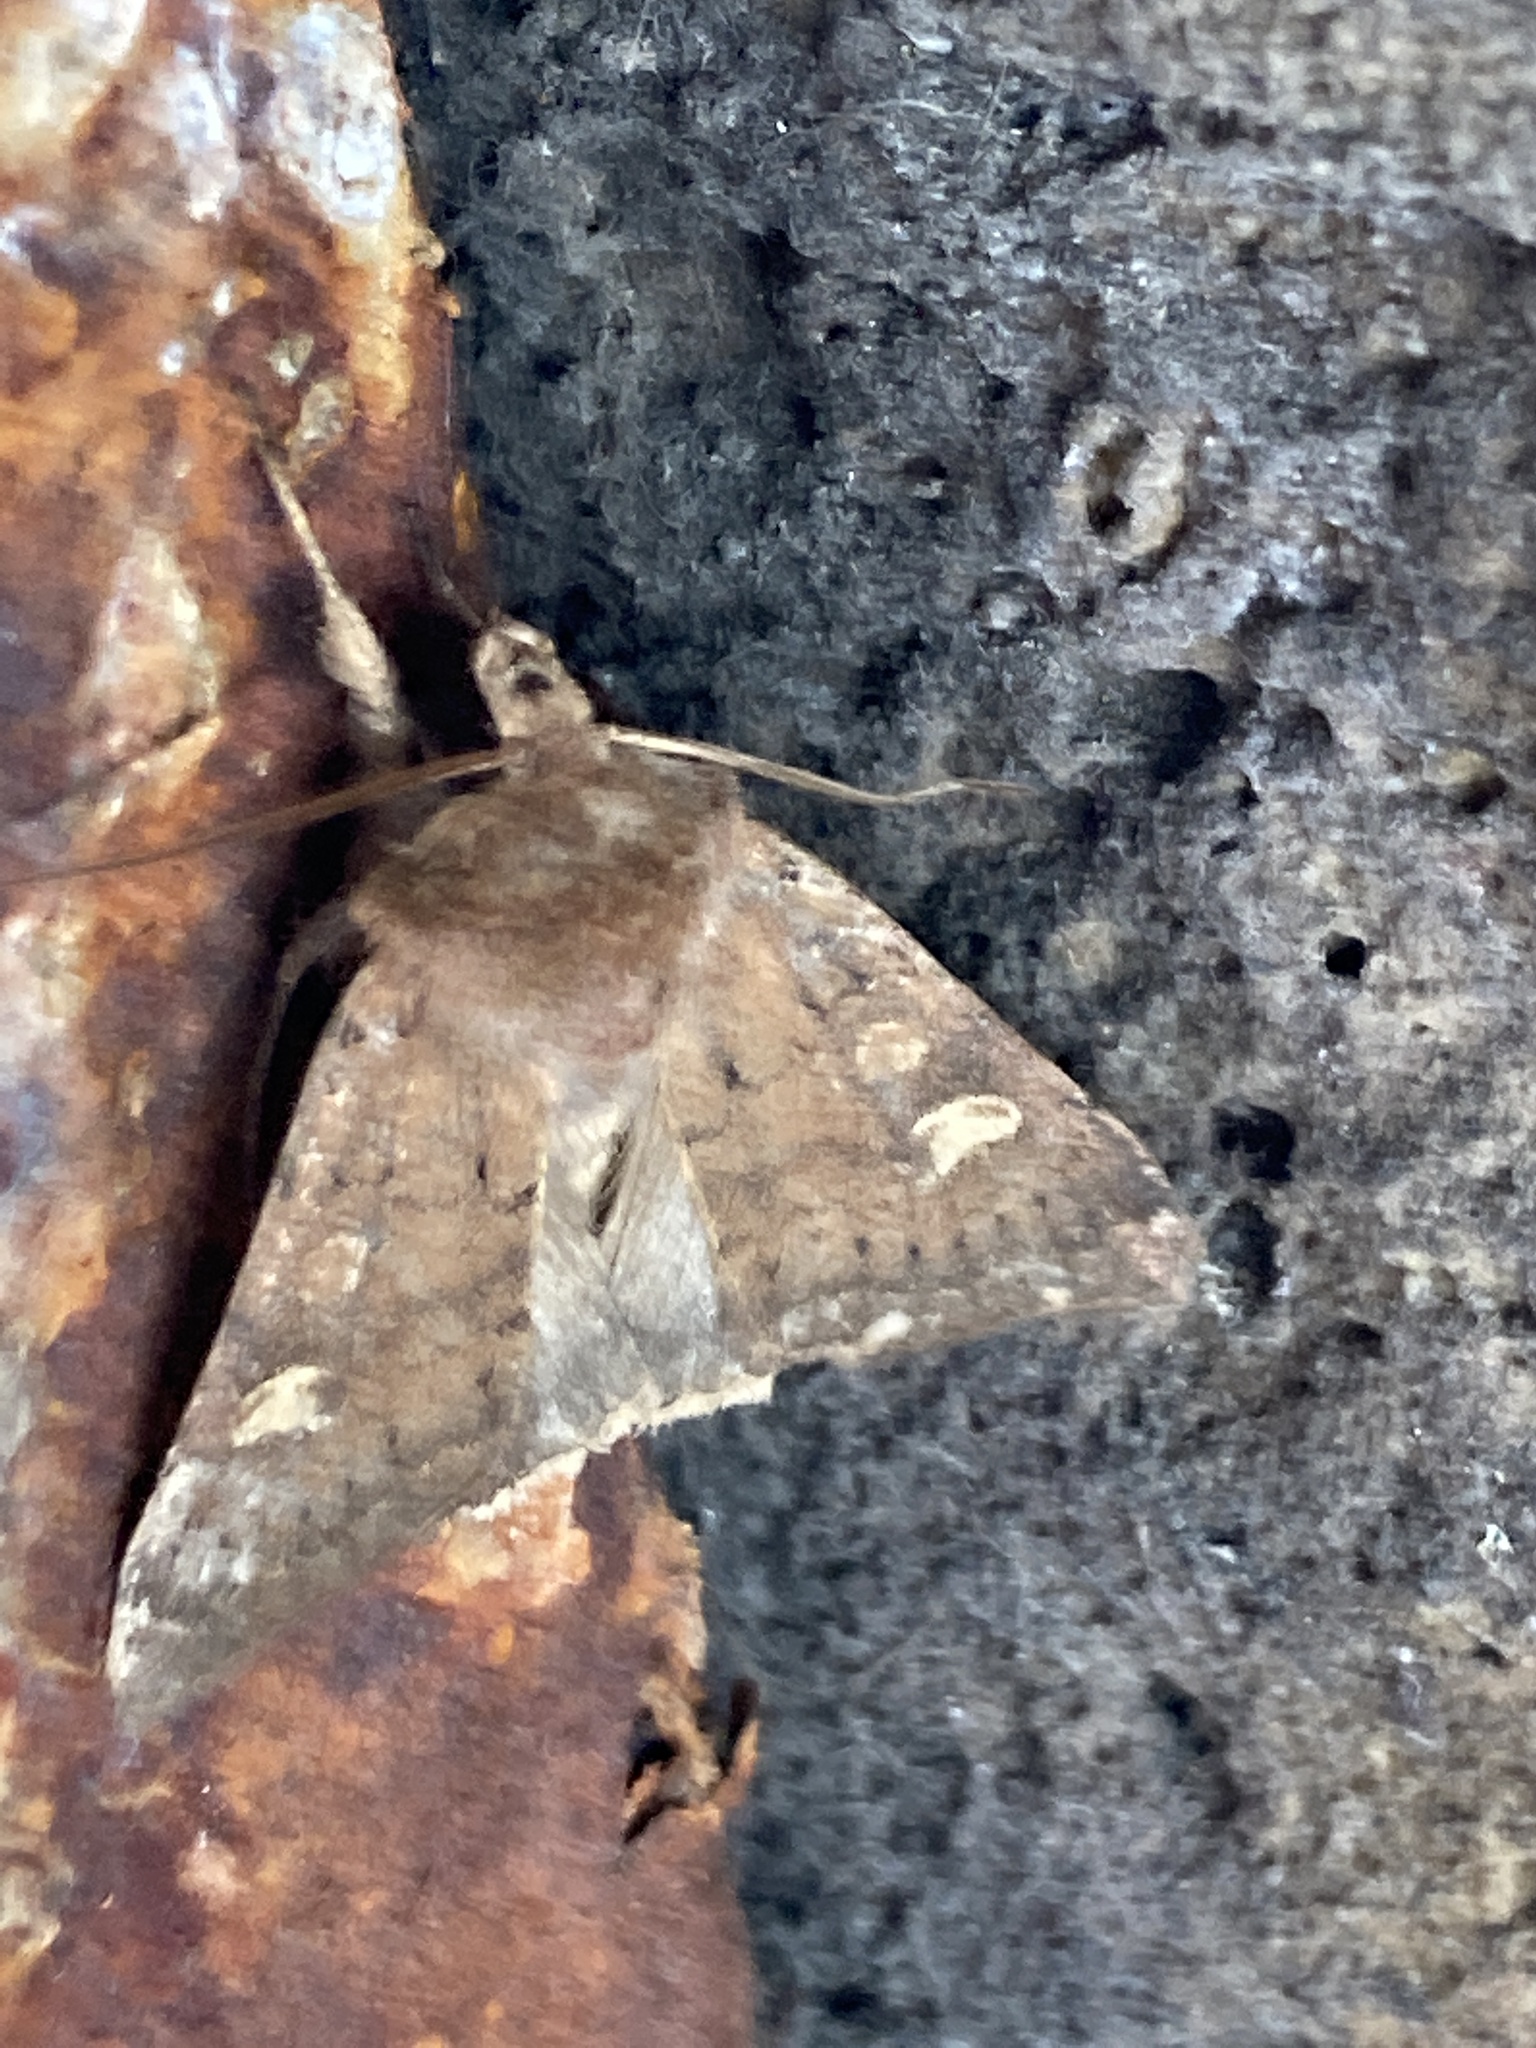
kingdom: Animalia
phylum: Arthropoda
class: Insecta
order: Lepidoptera
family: Noctuidae
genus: Xestia
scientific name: Xestia xanthographa
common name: Square-spot rustic
